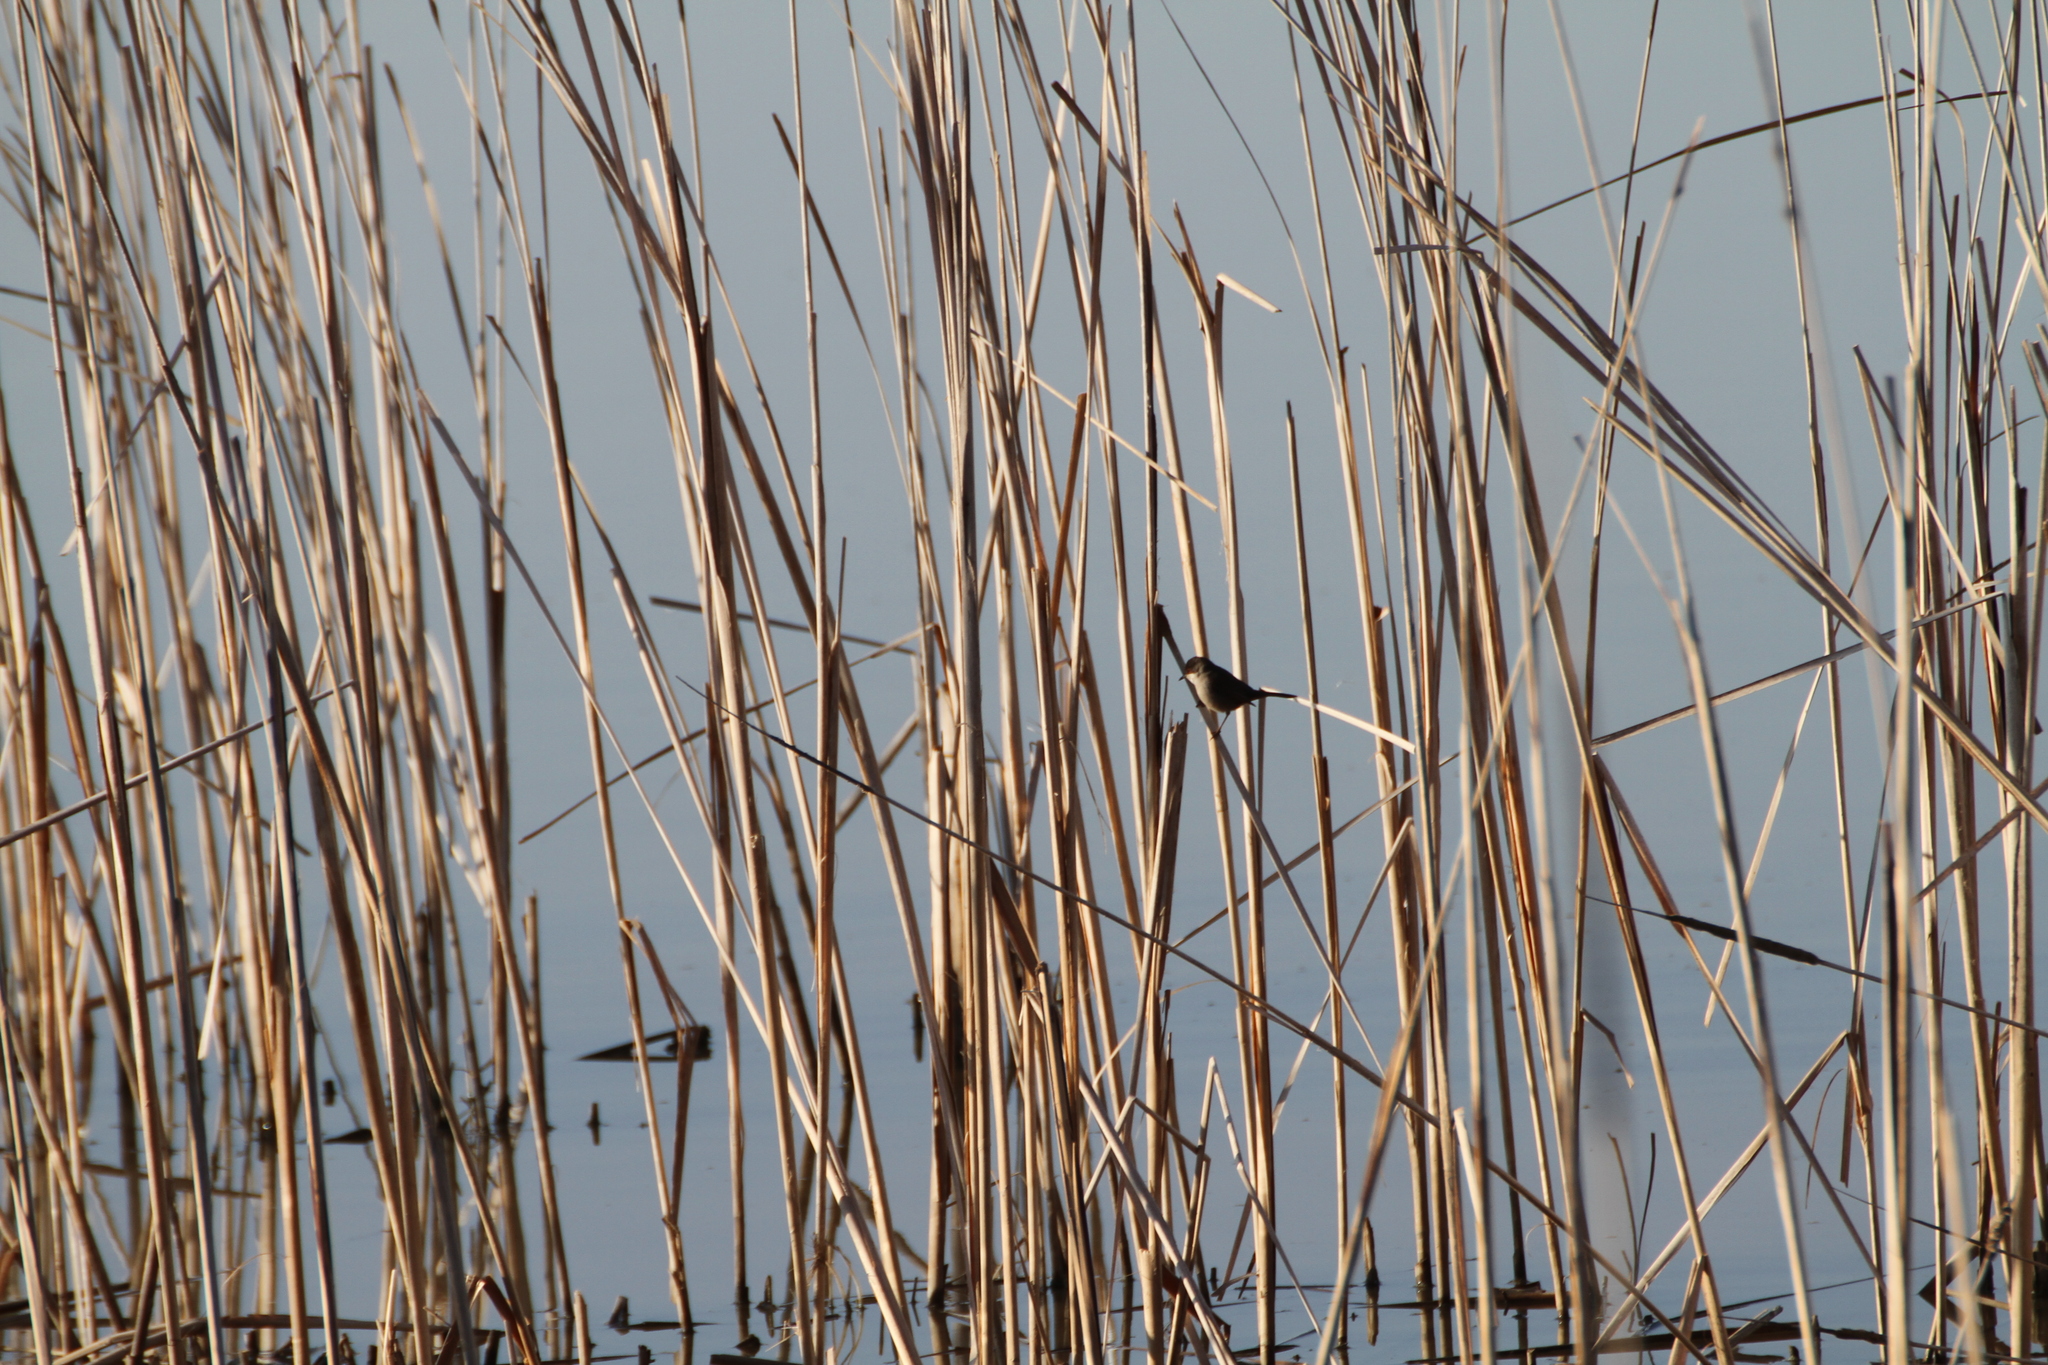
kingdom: Animalia
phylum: Chordata
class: Aves
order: Passeriformes
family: Sylviidae
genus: Curruca
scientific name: Curruca melanocephala
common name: Sardinian warbler
